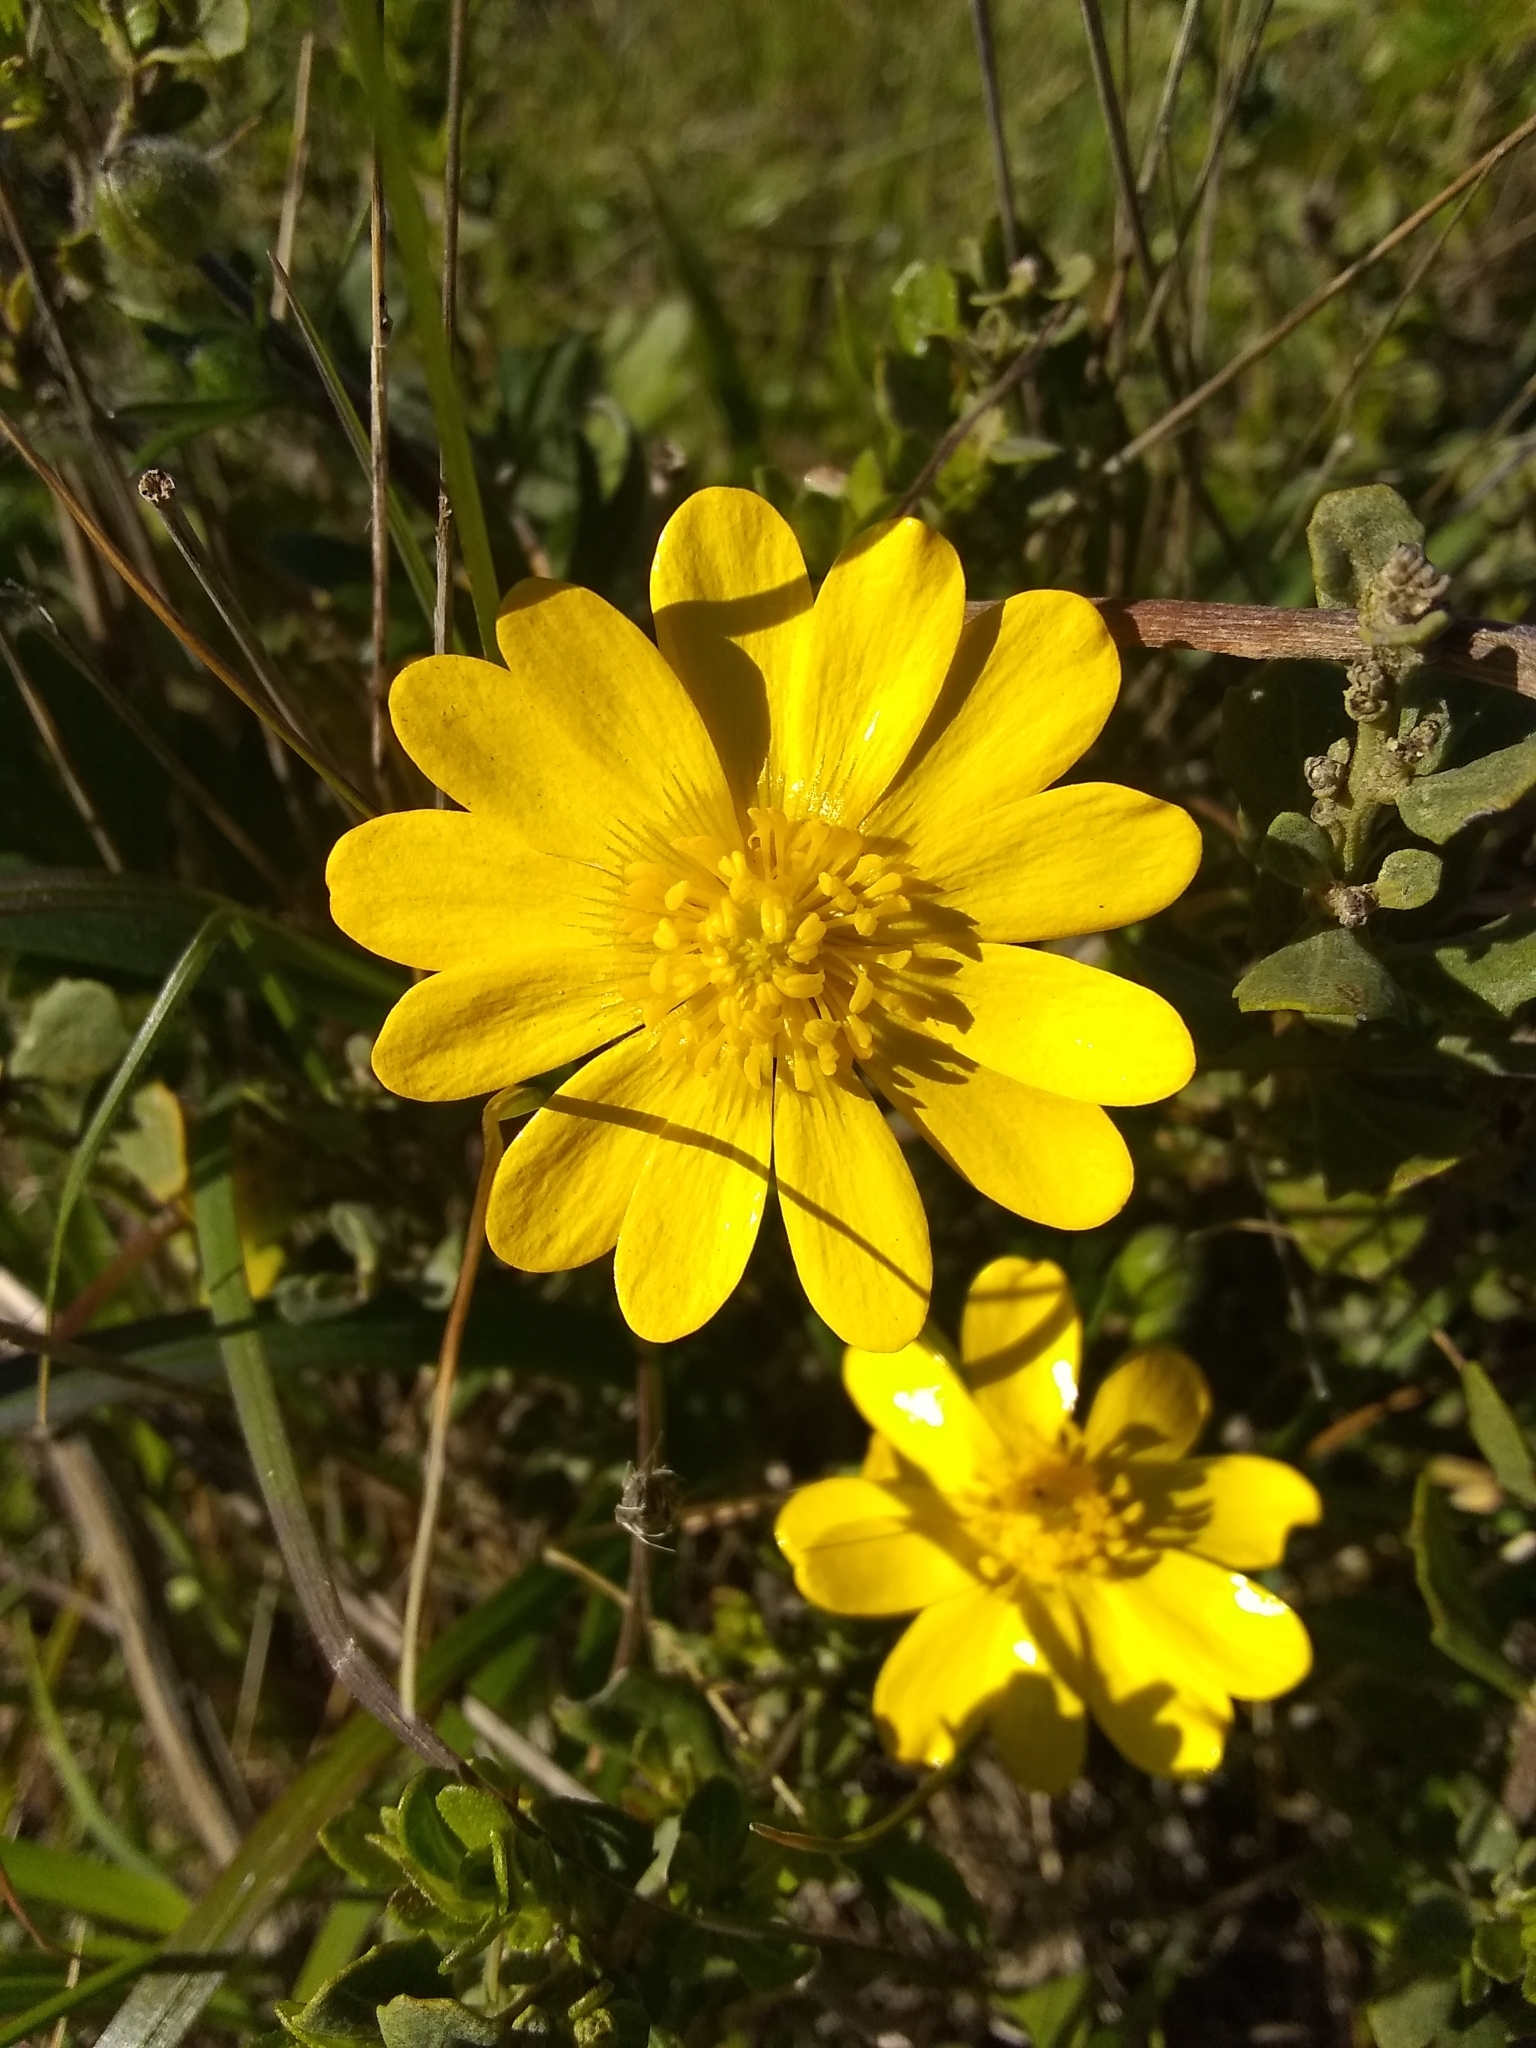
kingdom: Plantae
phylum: Tracheophyta
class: Magnoliopsida
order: Ranunculales
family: Ranunculaceae
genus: Ranunculus
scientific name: Ranunculus californicus
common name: California buttercup
